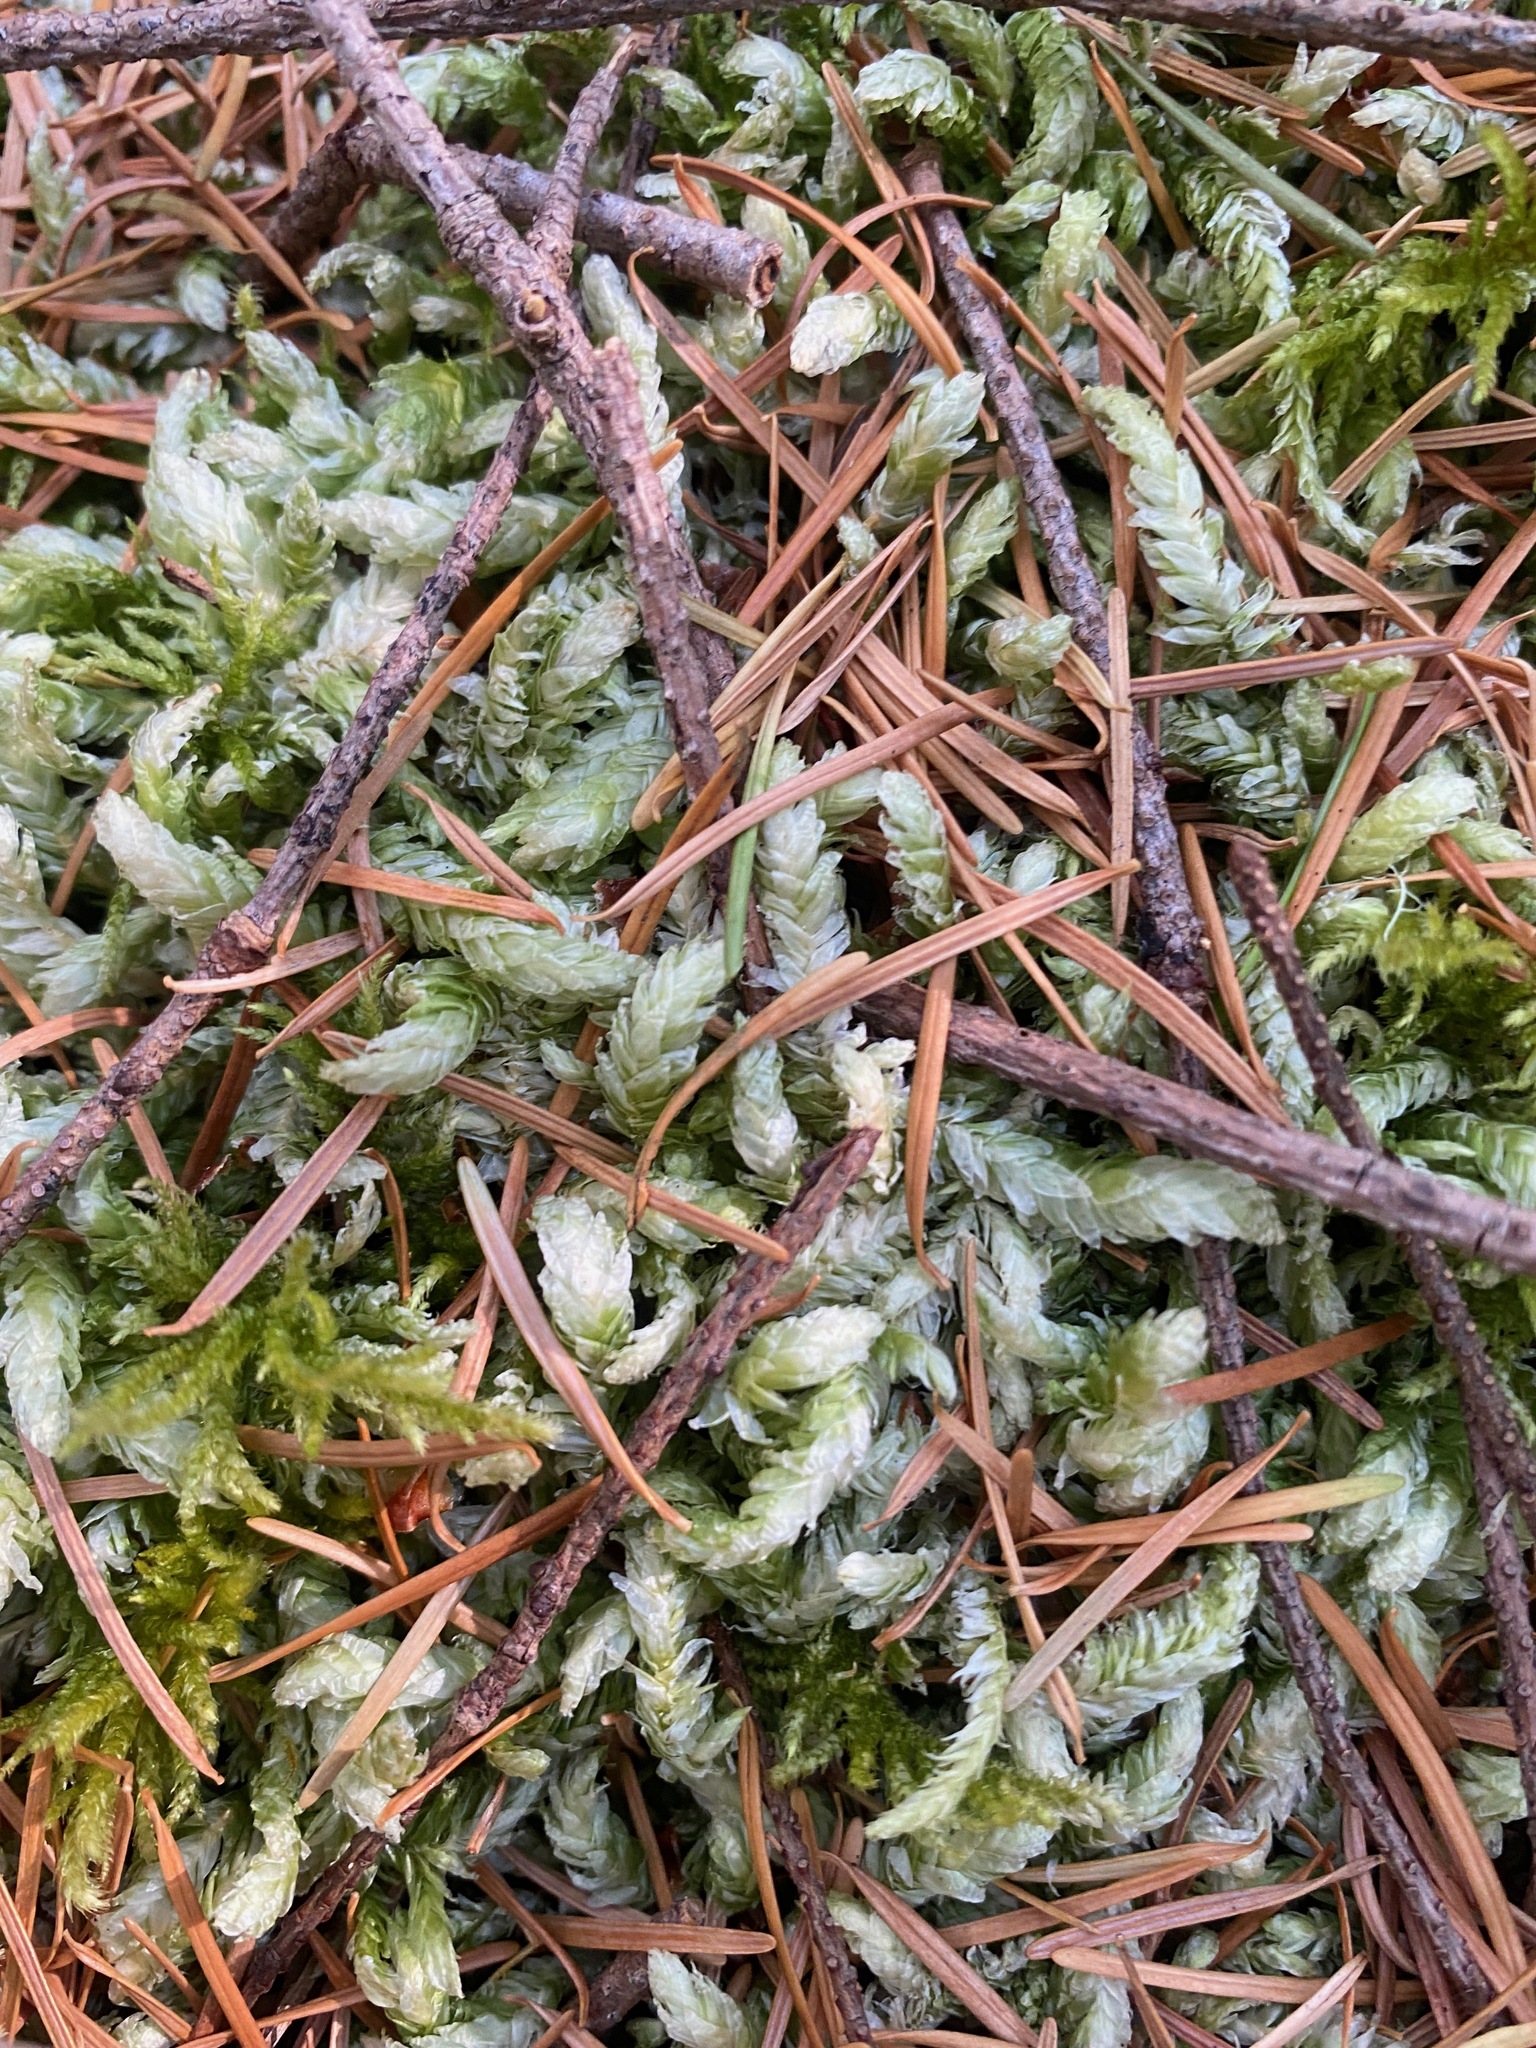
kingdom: Plantae
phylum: Bryophyta
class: Bryopsida
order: Hypnales
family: Plagiotheciaceae
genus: Plagiothecium
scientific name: Plagiothecium undulatum
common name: Waved silk-moss
